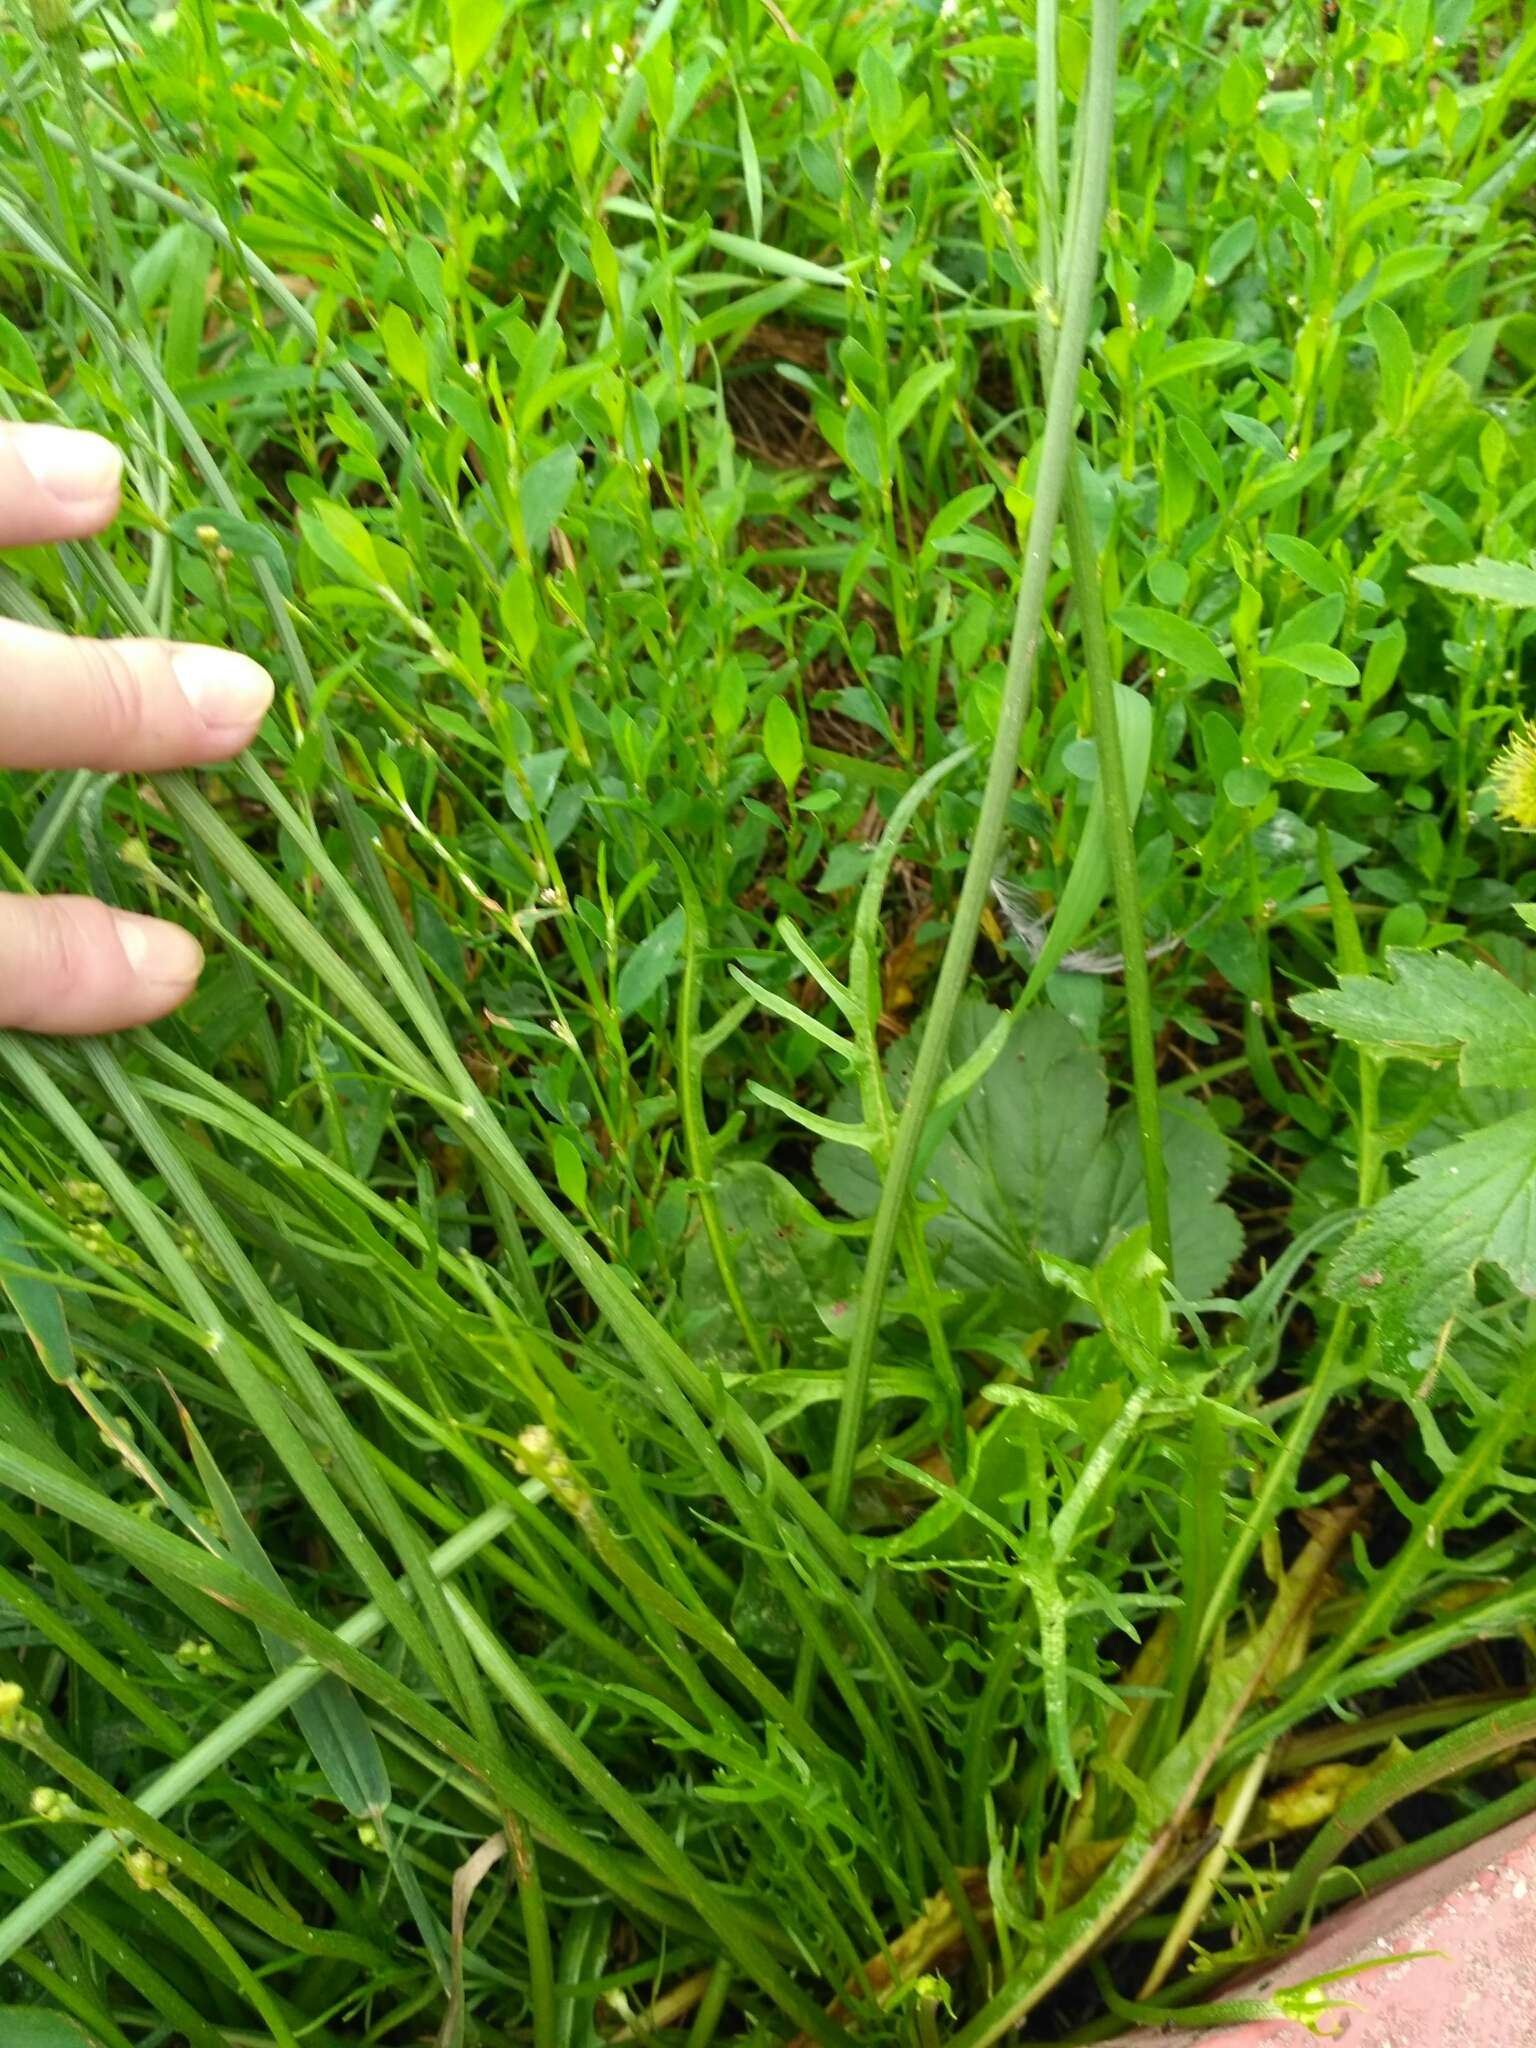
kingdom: Plantae
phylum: Tracheophyta
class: Magnoliopsida
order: Asterales
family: Asteraceae
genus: Crepis
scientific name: Crepis tectorum
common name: Narrow-leaved hawk's-beard
